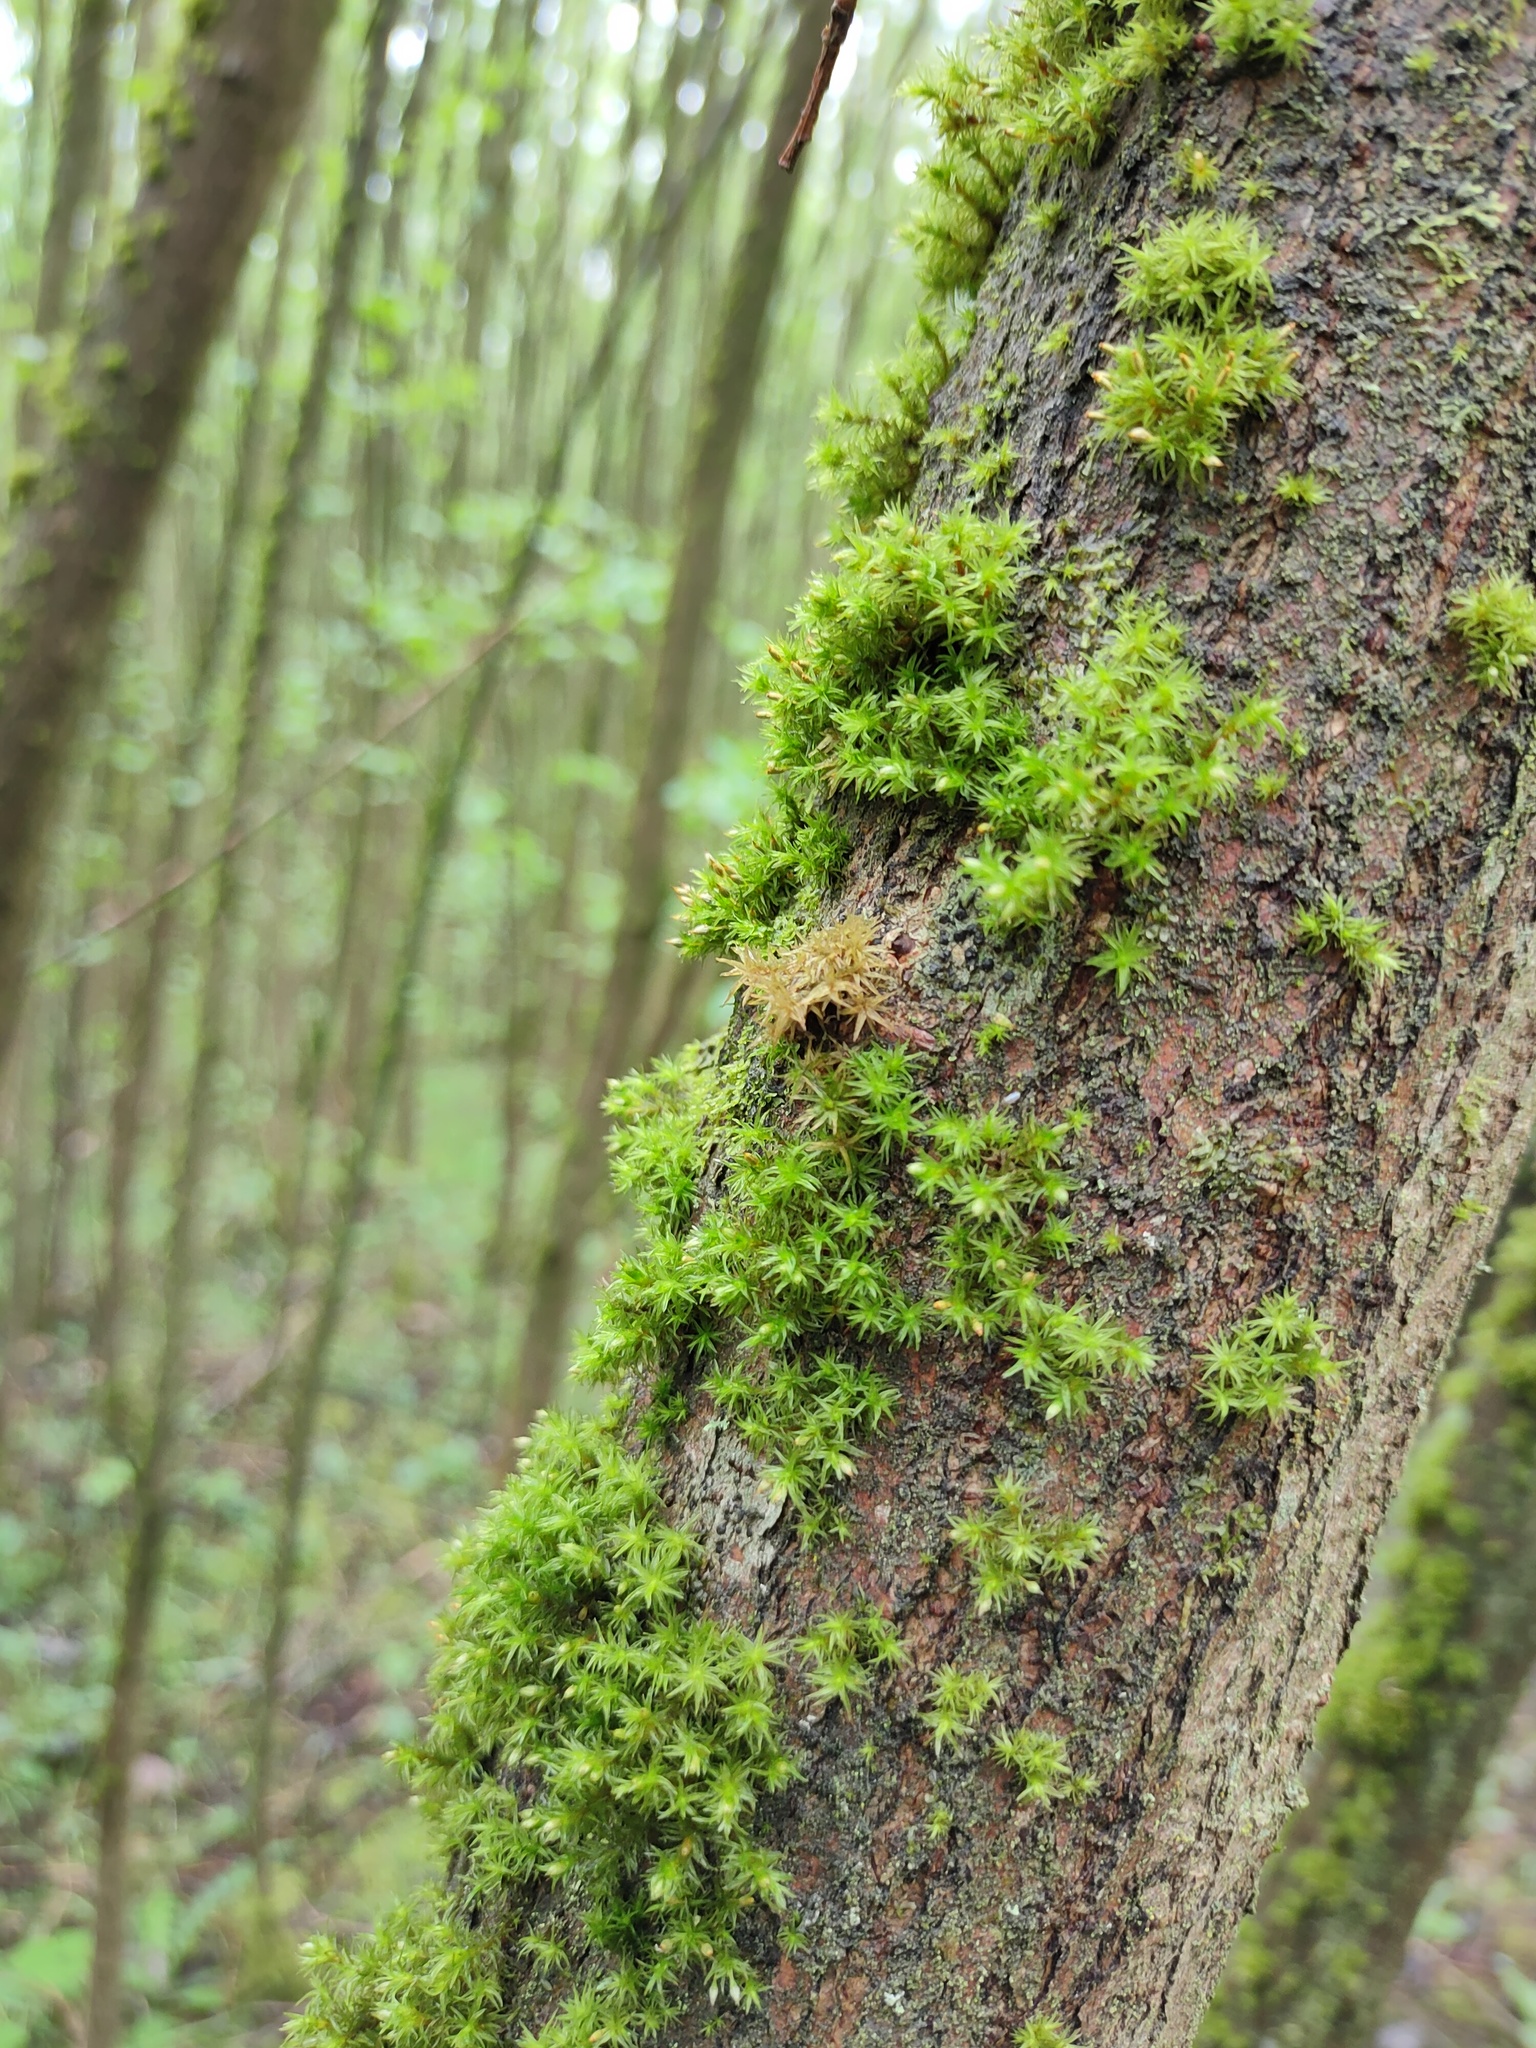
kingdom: Plantae
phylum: Bryophyta
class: Bryopsida
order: Orthotrichales
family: Orthotrichaceae
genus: Orthotrichum
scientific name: Orthotrichum pulchellum
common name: Elegant bristle-moss
